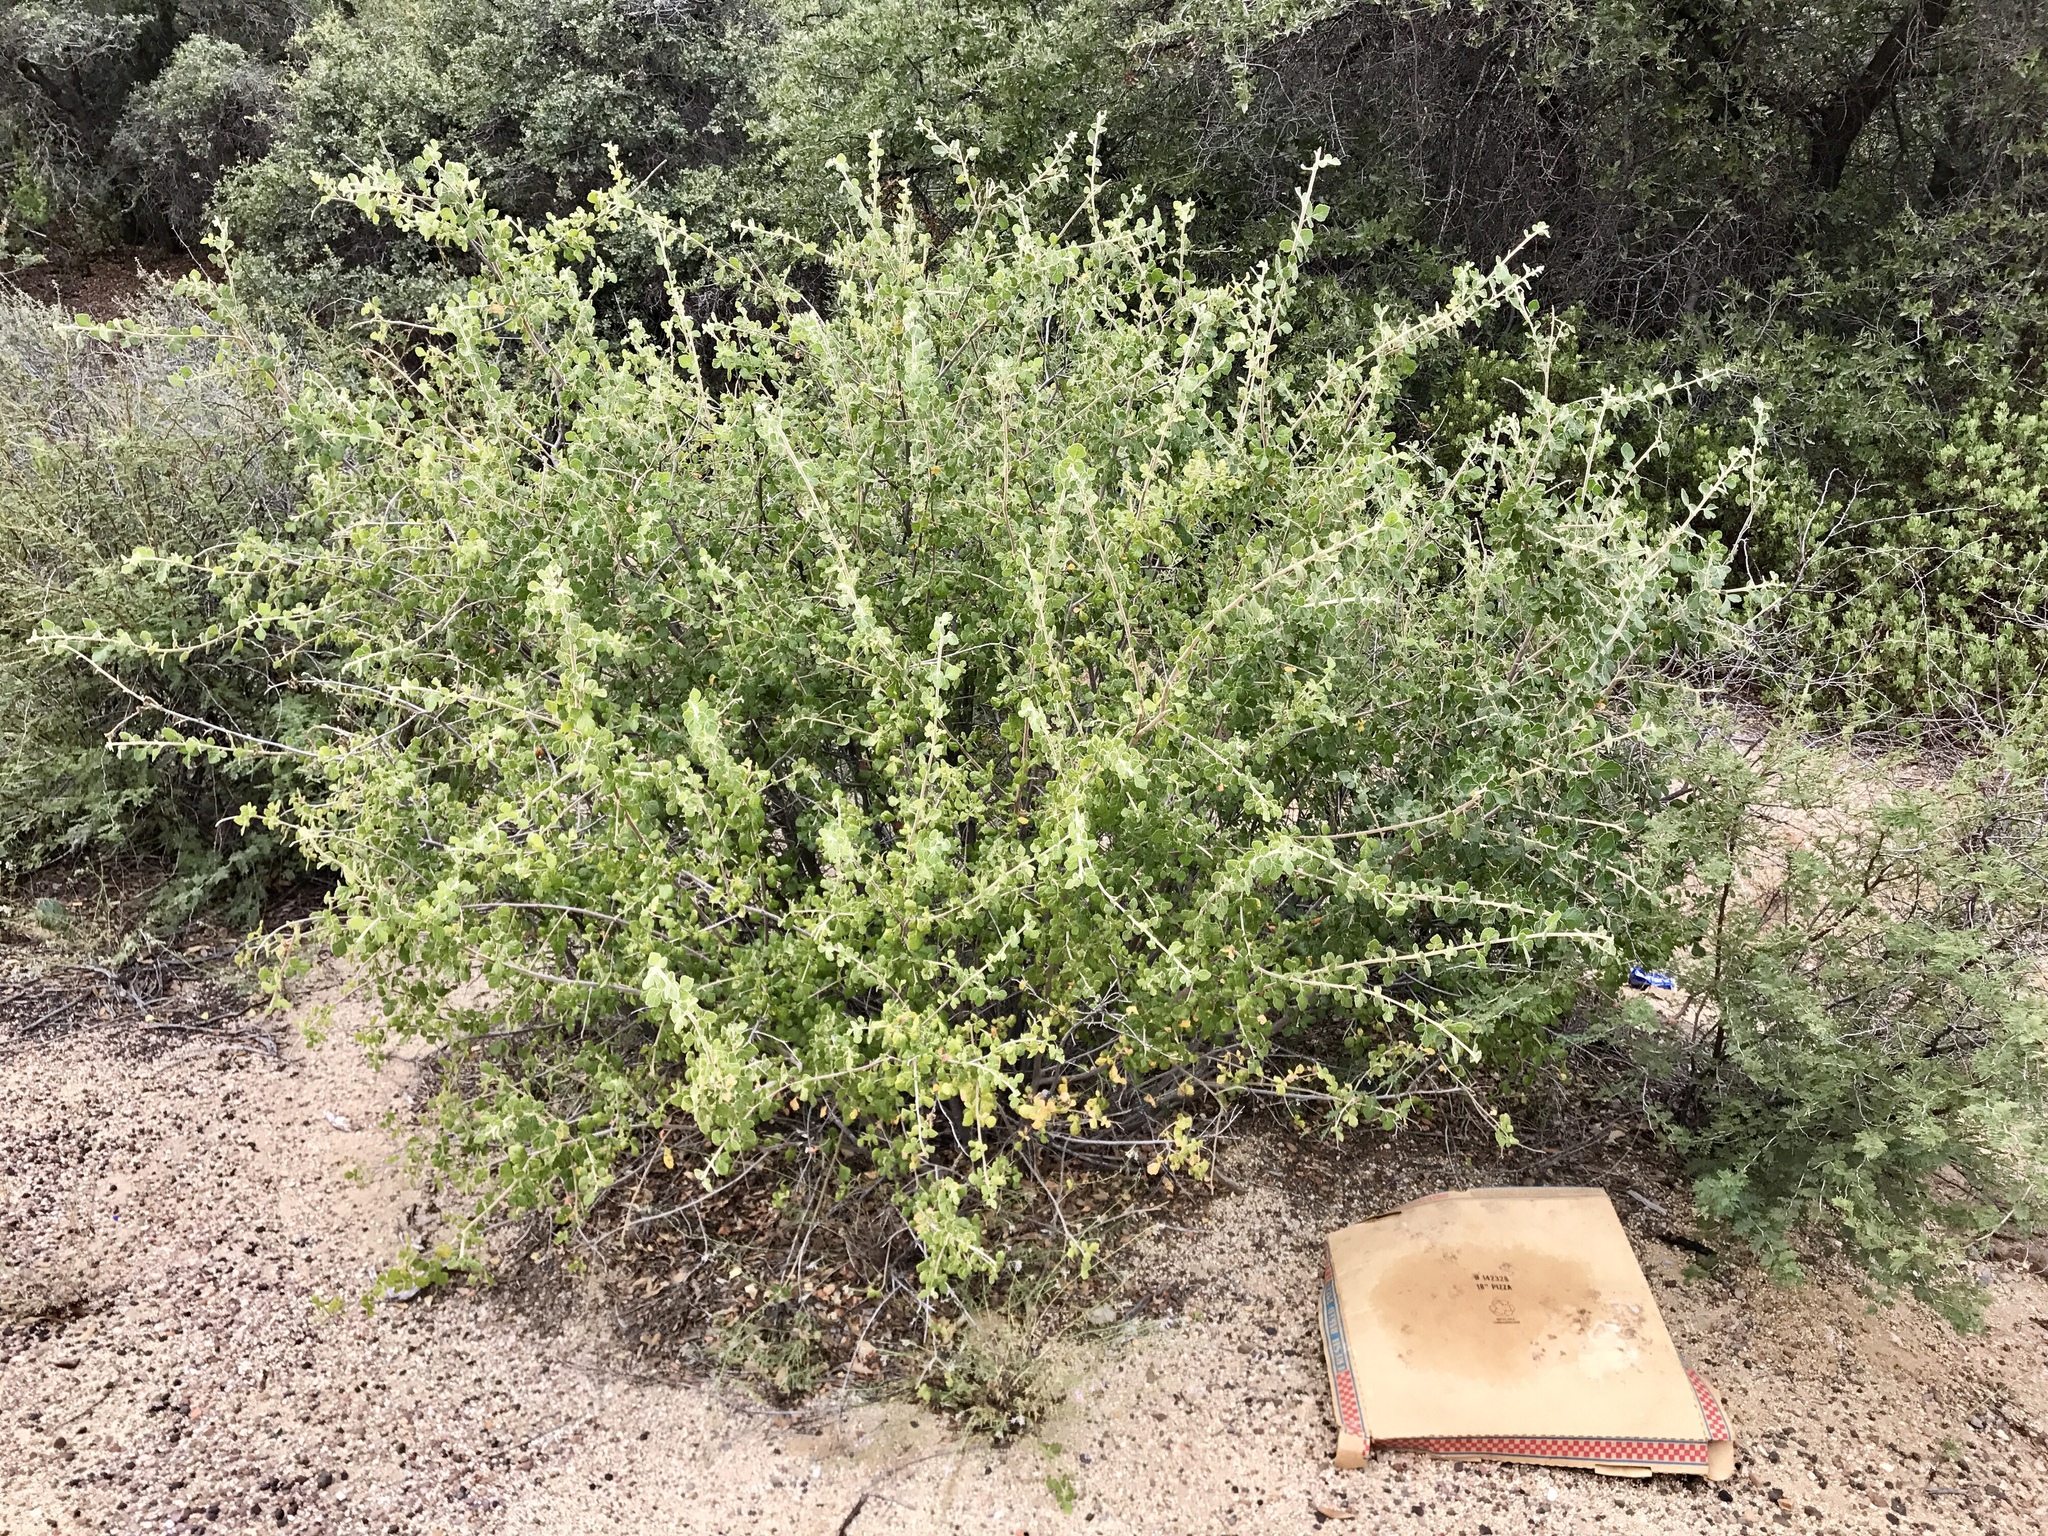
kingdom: Plantae
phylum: Tracheophyta
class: Magnoliopsida
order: Sapindales
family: Anacardiaceae
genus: Rhus
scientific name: Rhus aromatica
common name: Aromatic sumac
